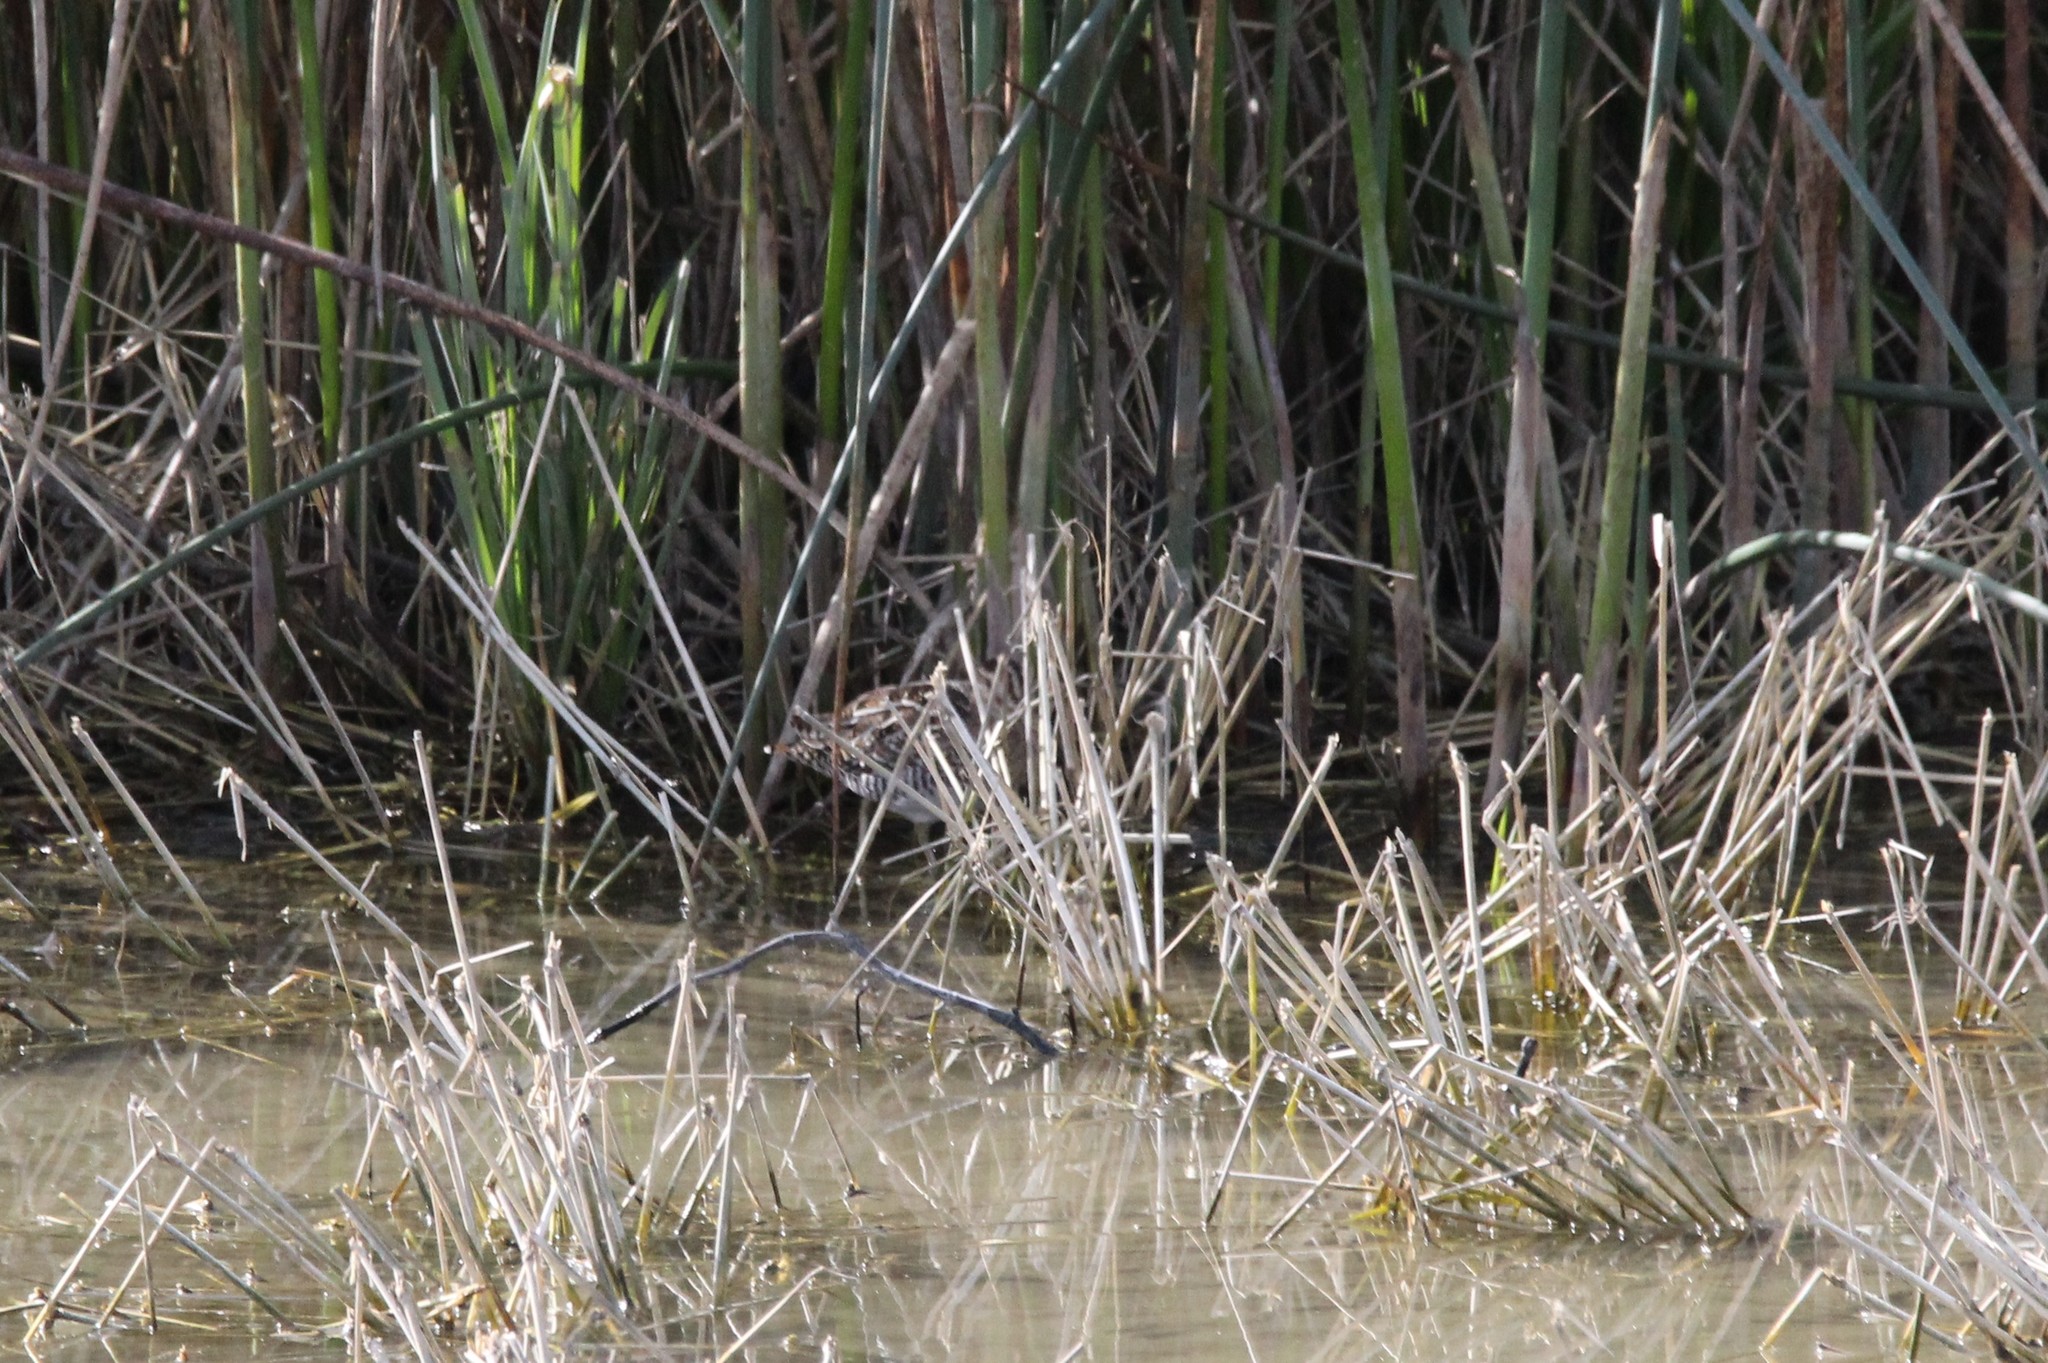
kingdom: Animalia
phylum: Chordata
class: Aves
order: Charadriiformes
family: Scolopacidae
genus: Gallinago
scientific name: Gallinago delicata
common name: Wilson's snipe
